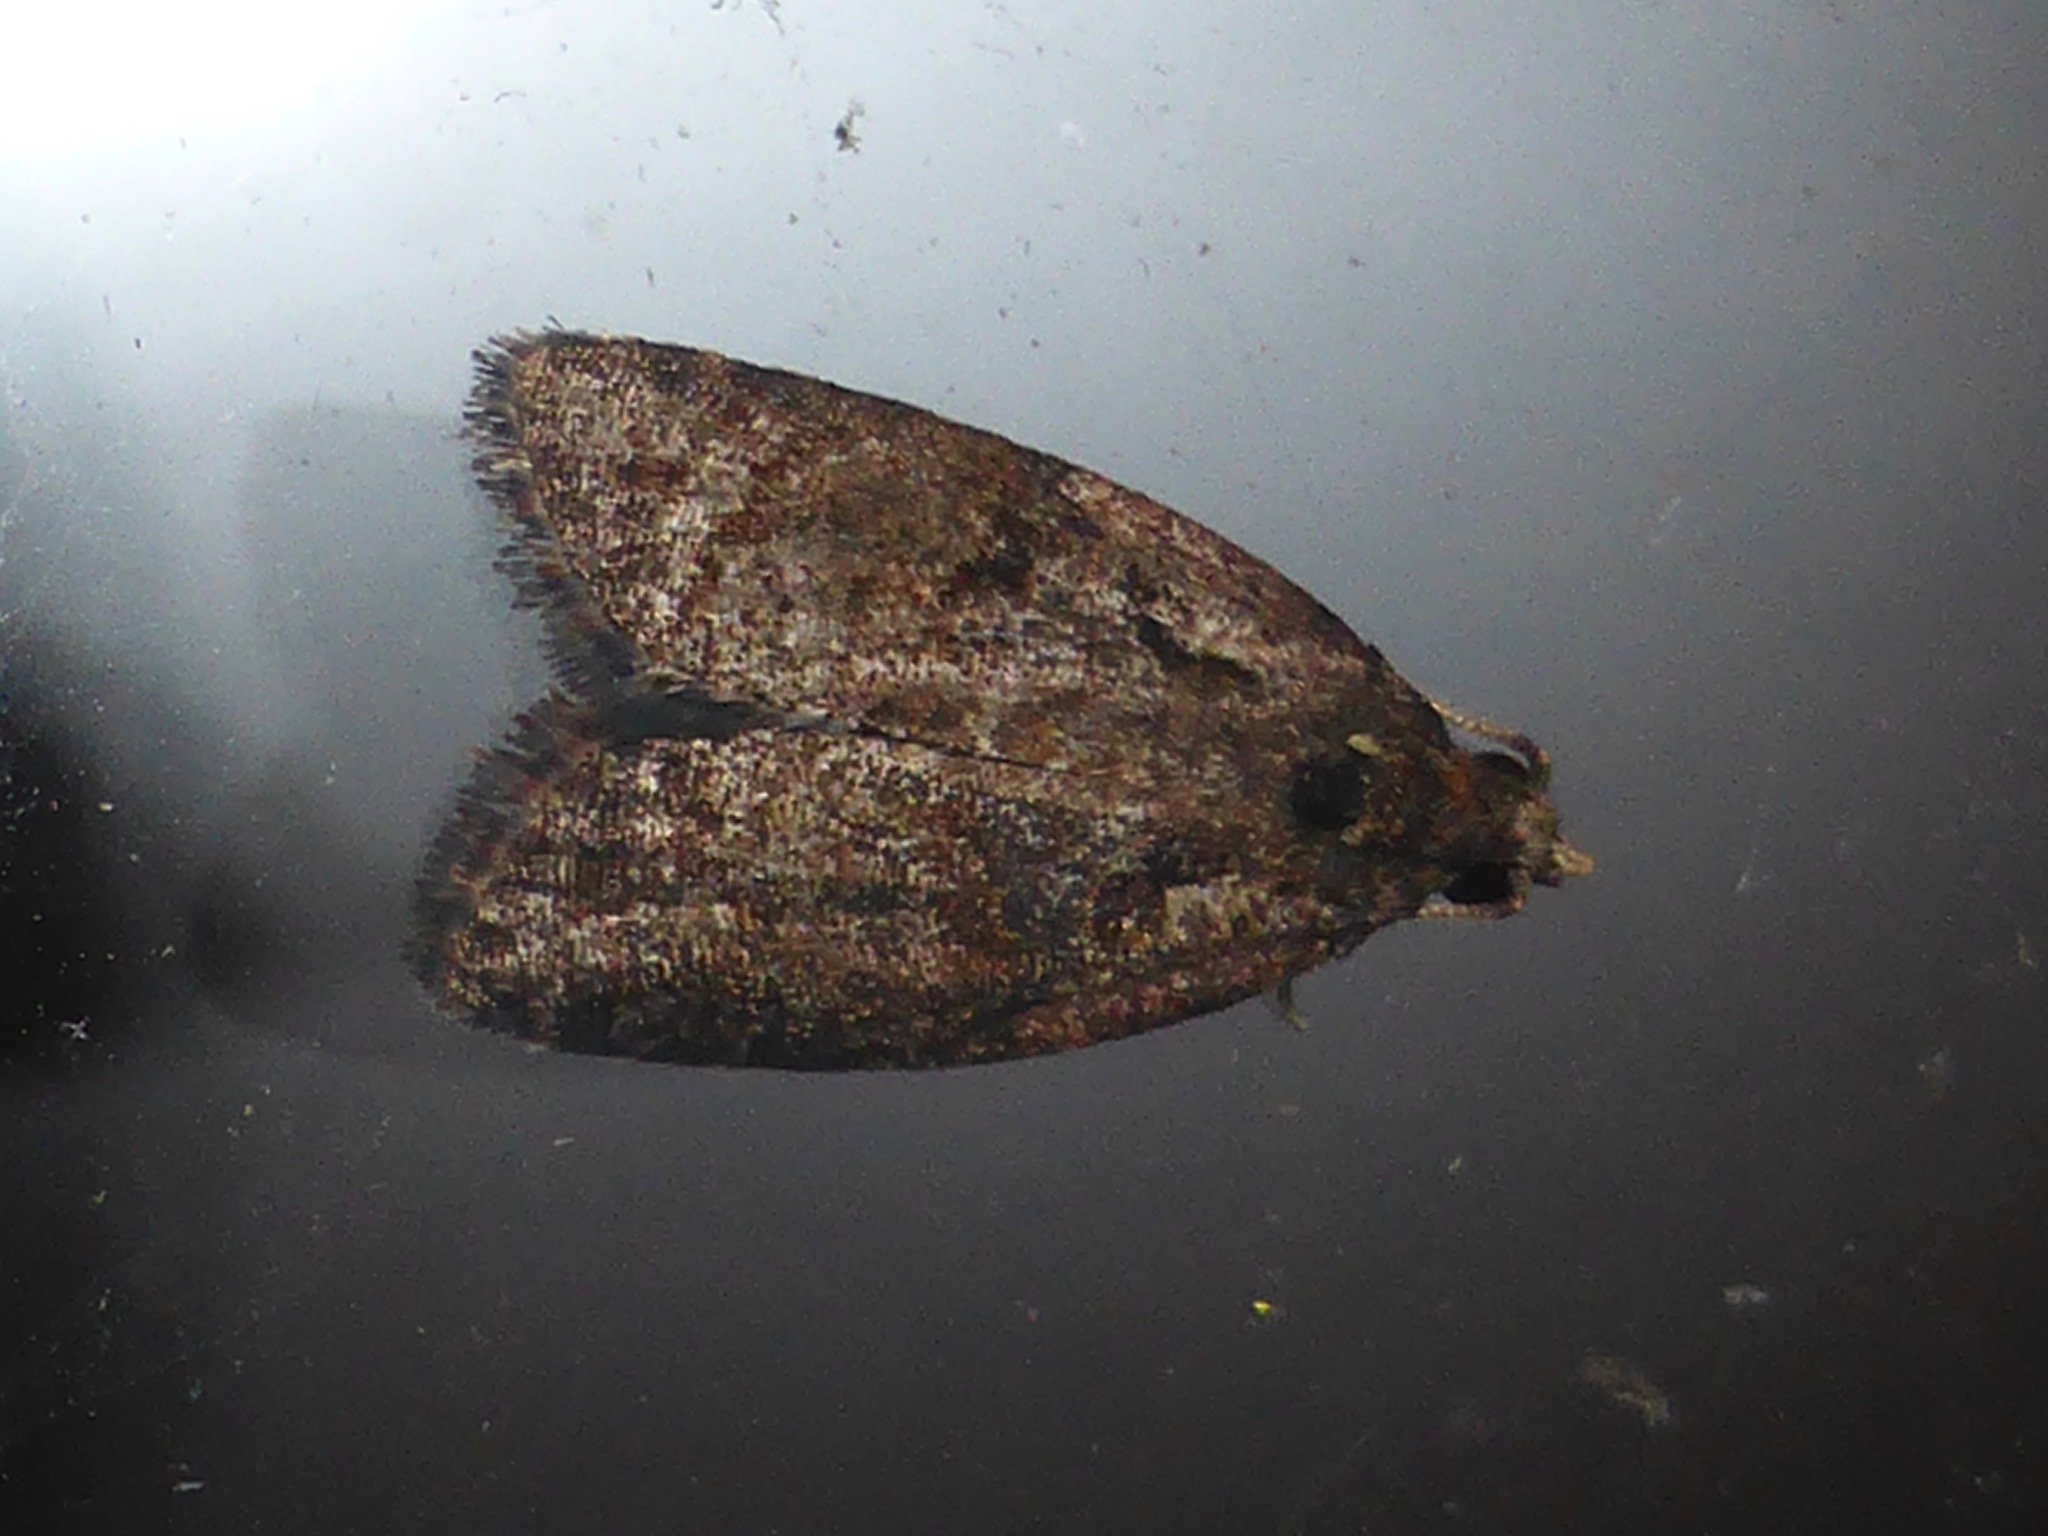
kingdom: Animalia
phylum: Arthropoda
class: Insecta
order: Lepidoptera
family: Tortricidae
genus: Capua
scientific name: Capua intractana
